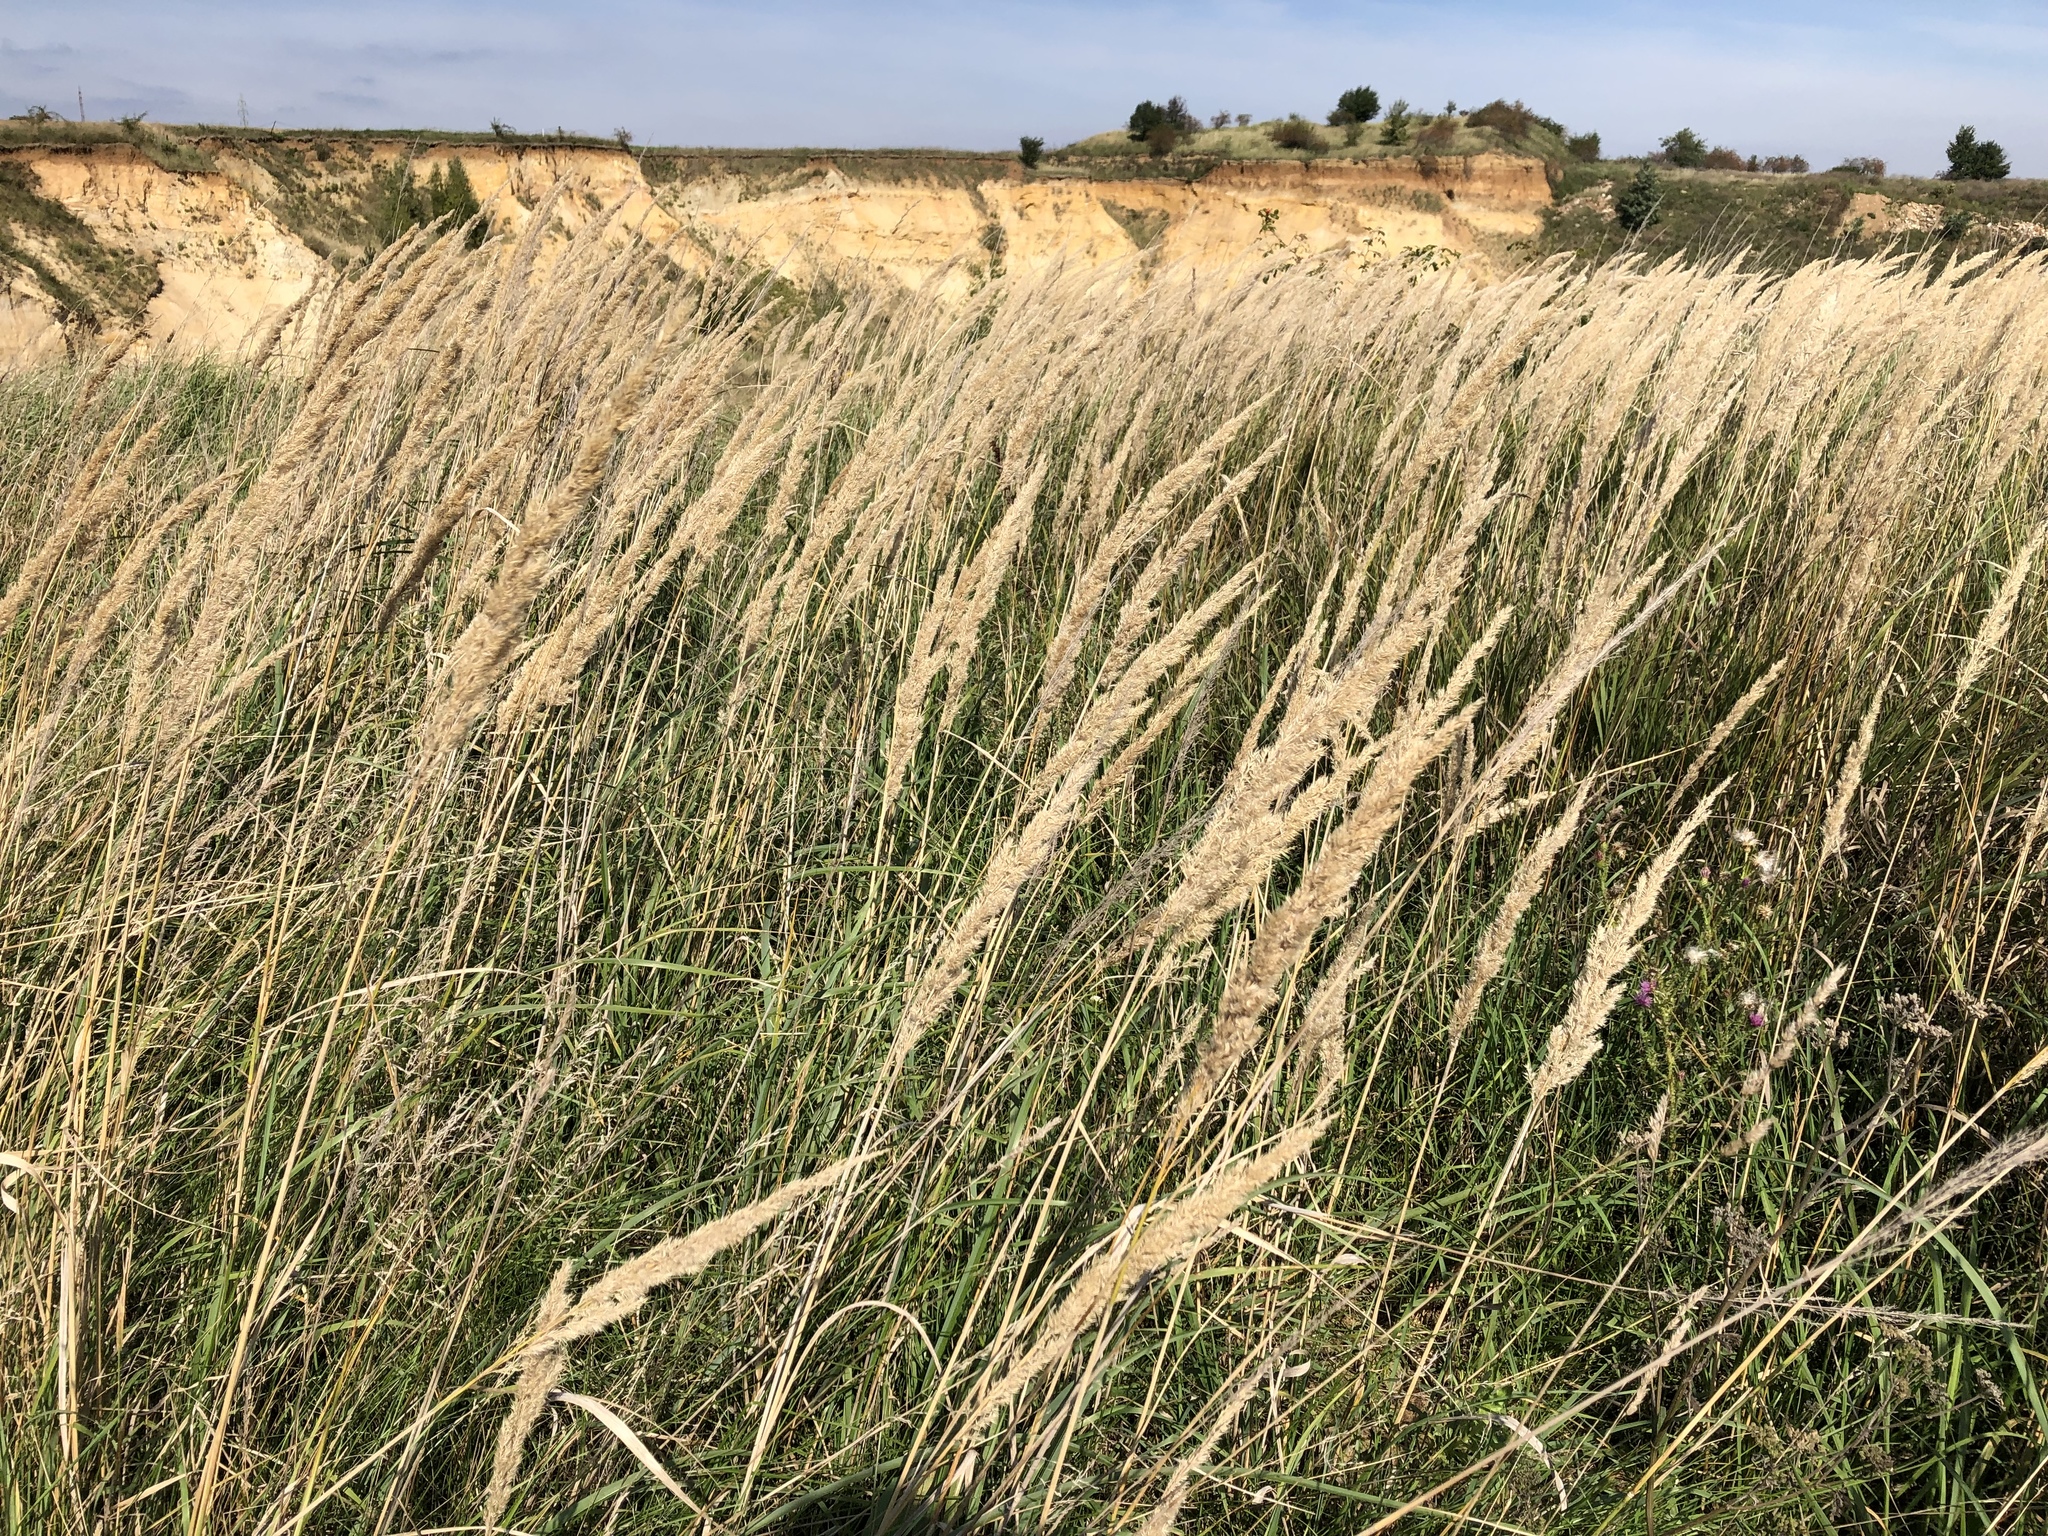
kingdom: Plantae
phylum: Tracheophyta
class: Liliopsida
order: Poales
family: Poaceae
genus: Calamagrostis
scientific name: Calamagrostis epigejos
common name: Wood small-reed
